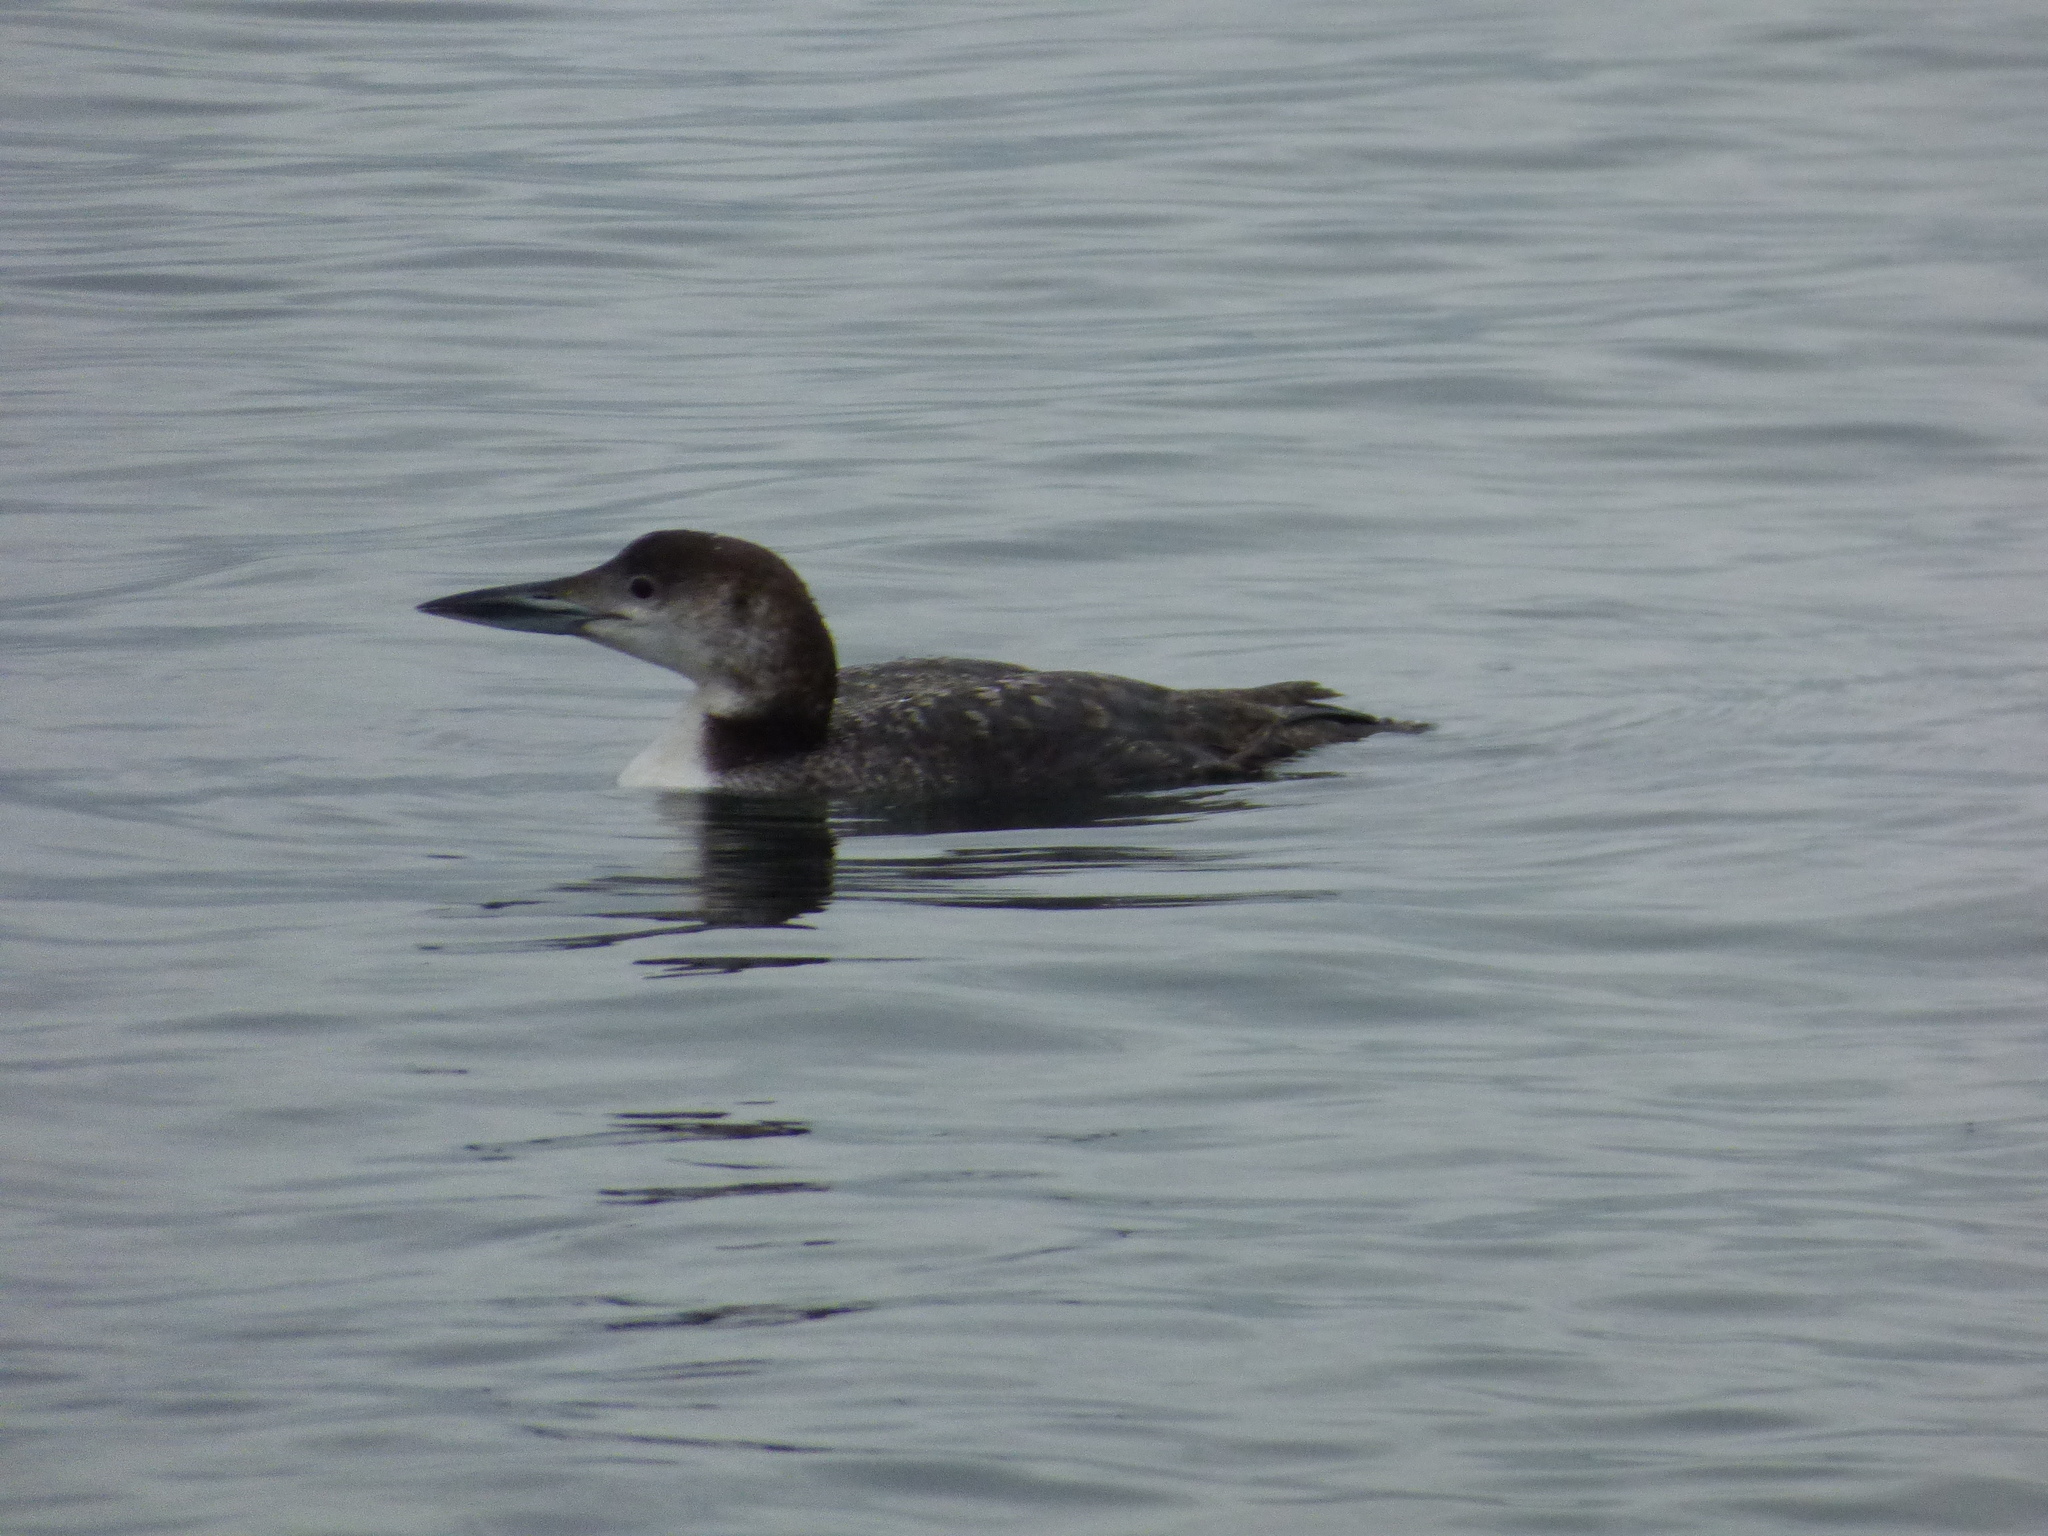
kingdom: Animalia
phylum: Chordata
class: Aves
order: Gaviiformes
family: Gaviidae
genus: Gavia
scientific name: Gavia immer
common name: Common loon
